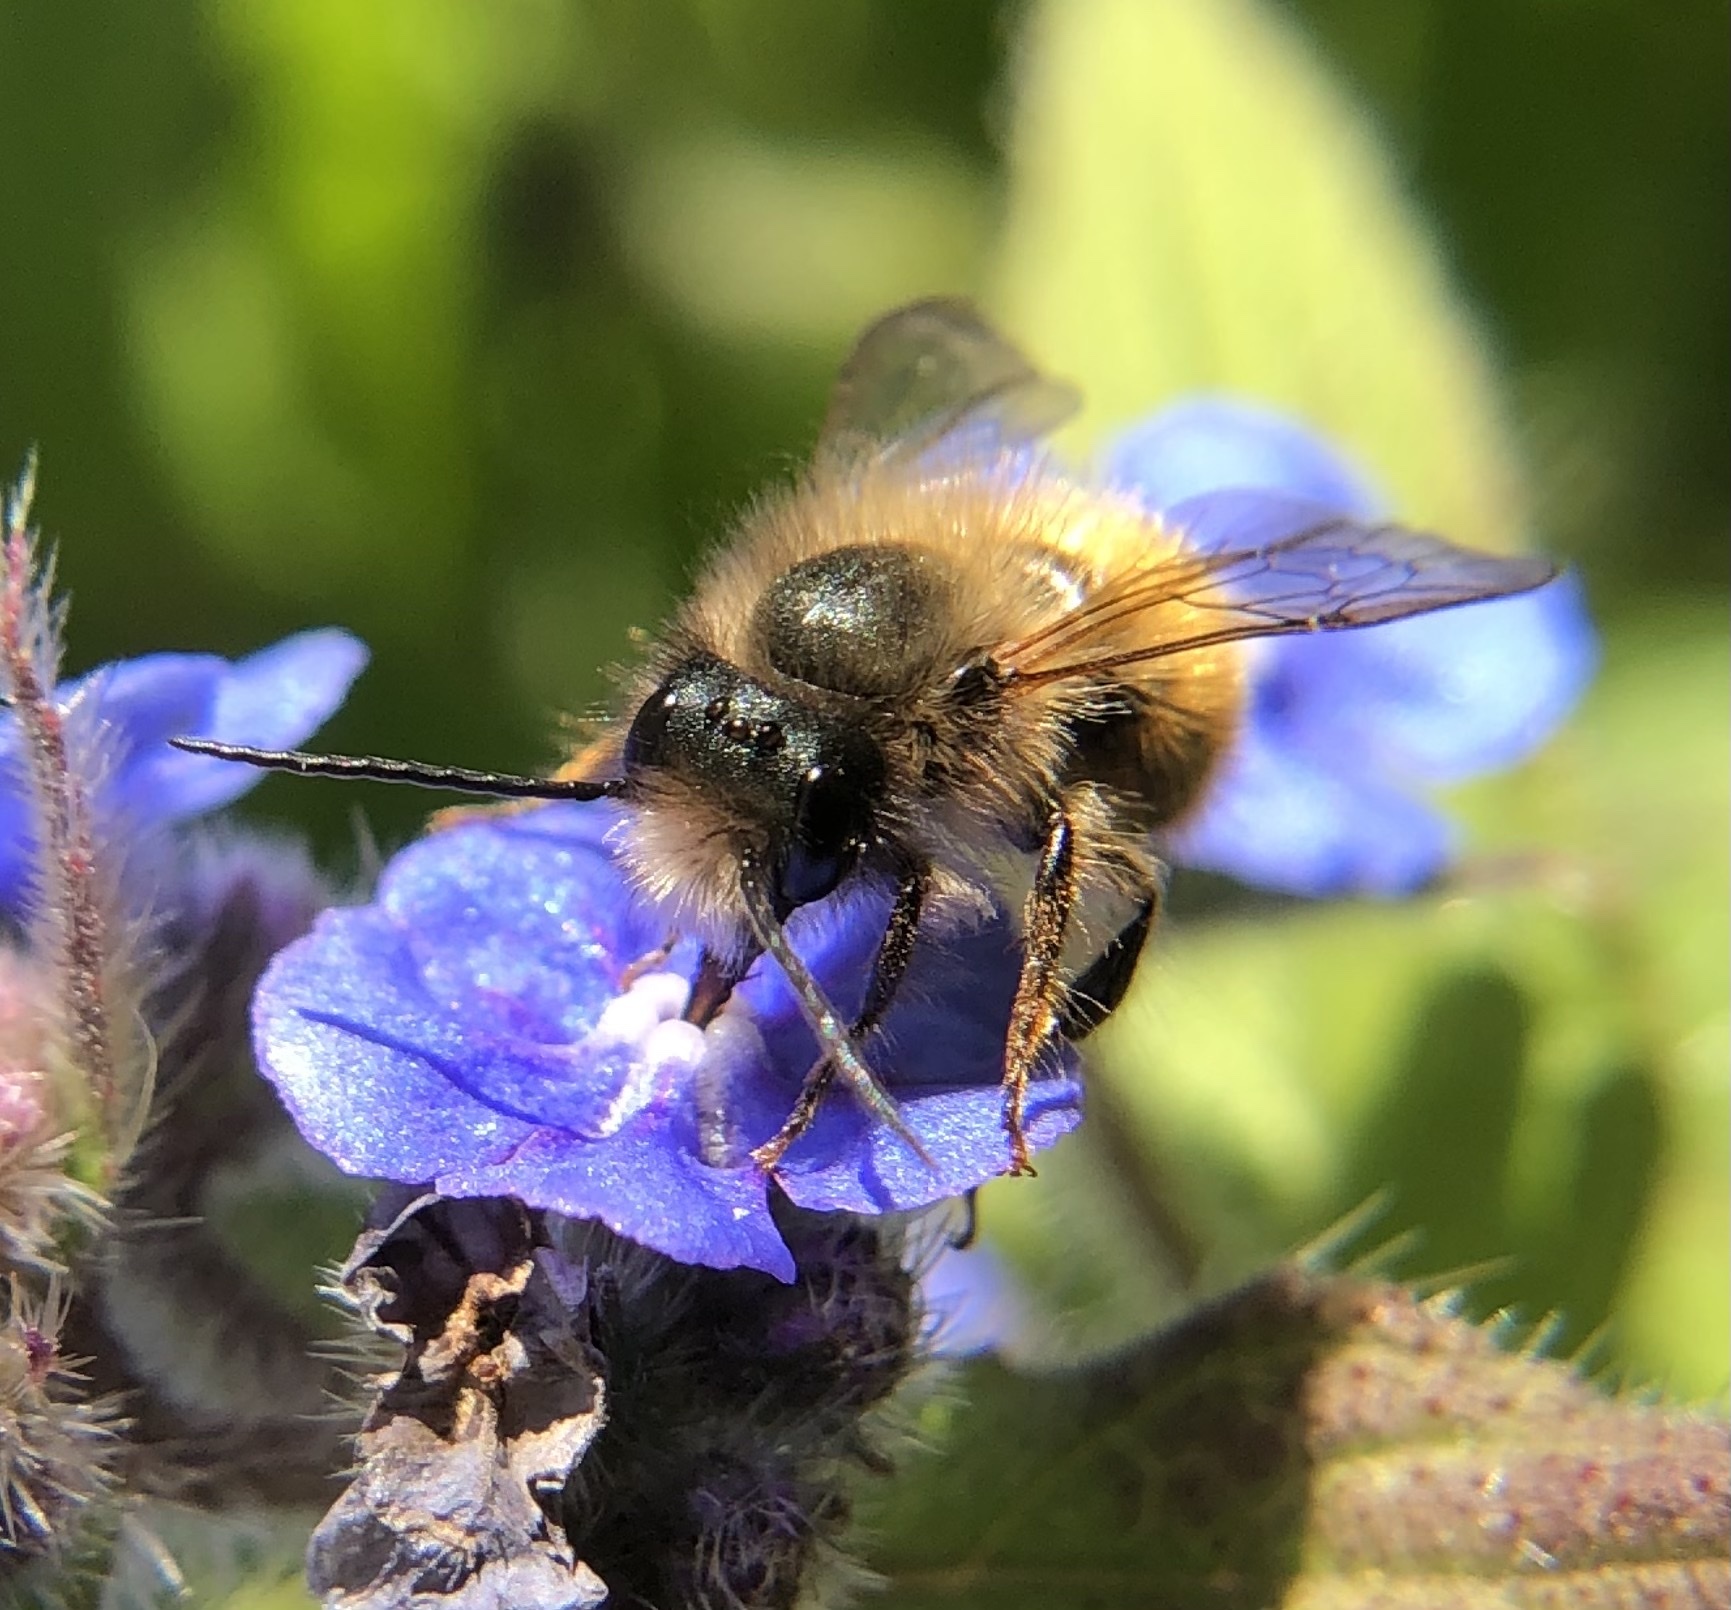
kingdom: Animalia
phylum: Arthropoda
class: Insecta
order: Hymenoptera
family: Megachilidae
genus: Osmia
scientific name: Osmia bicornis
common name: Red mason bee
